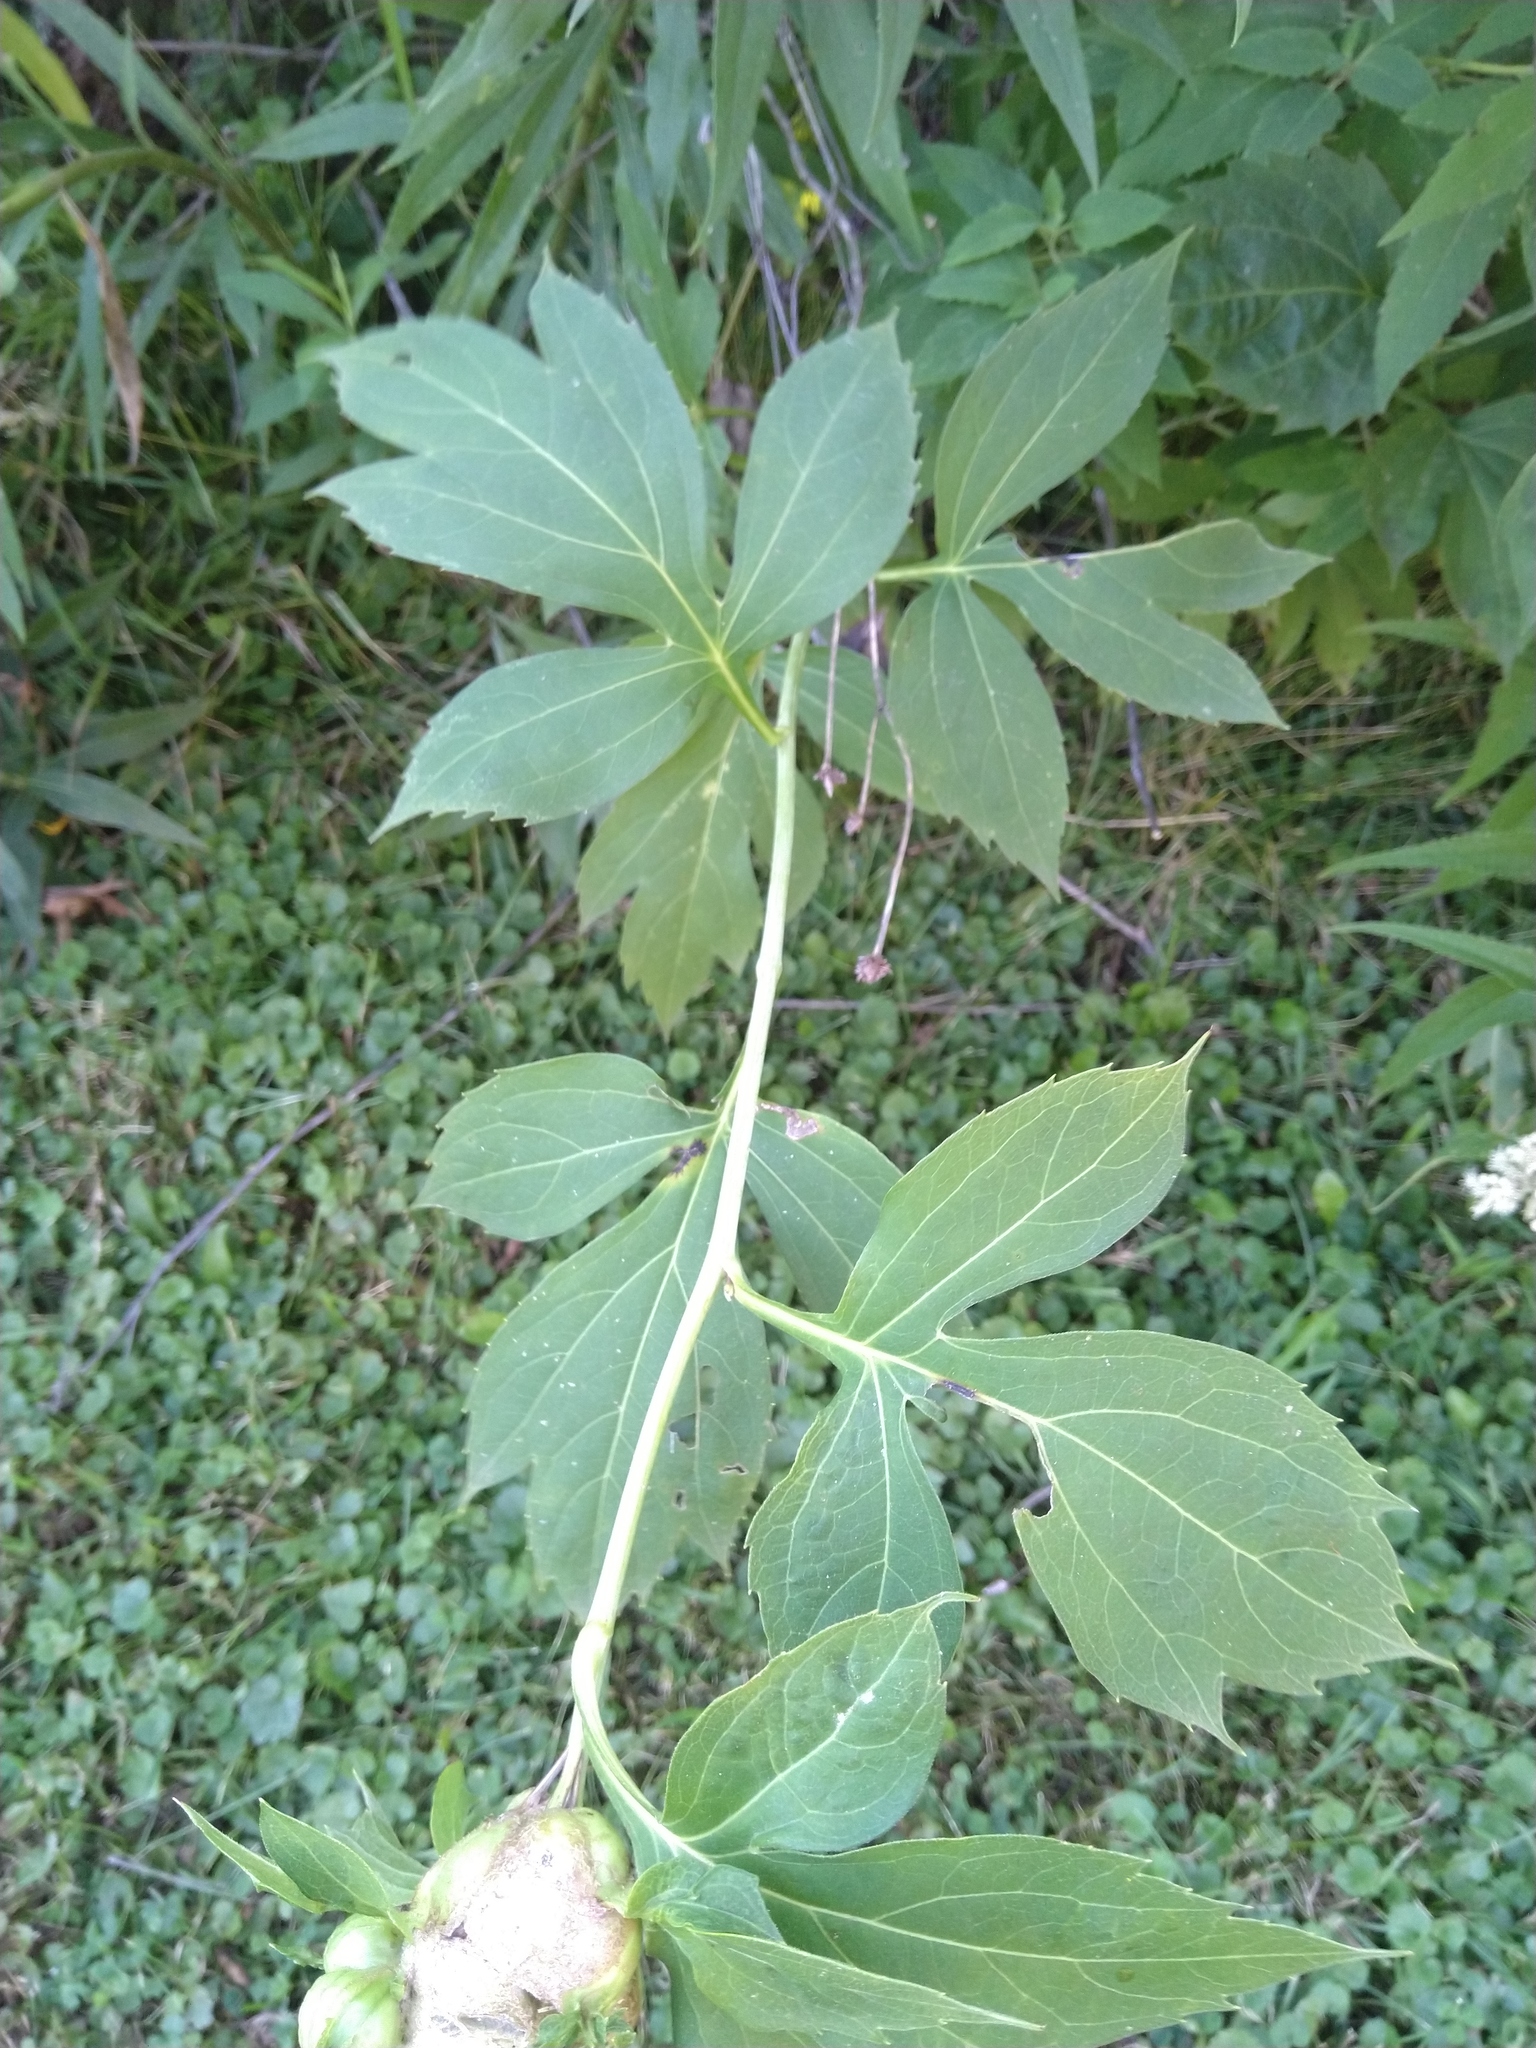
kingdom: Animalia
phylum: Arthropoda
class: Insecta
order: Diptera
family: Cecidomyiidae
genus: Asphondylia
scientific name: Asphondylia rudbeckiaeconspicua
